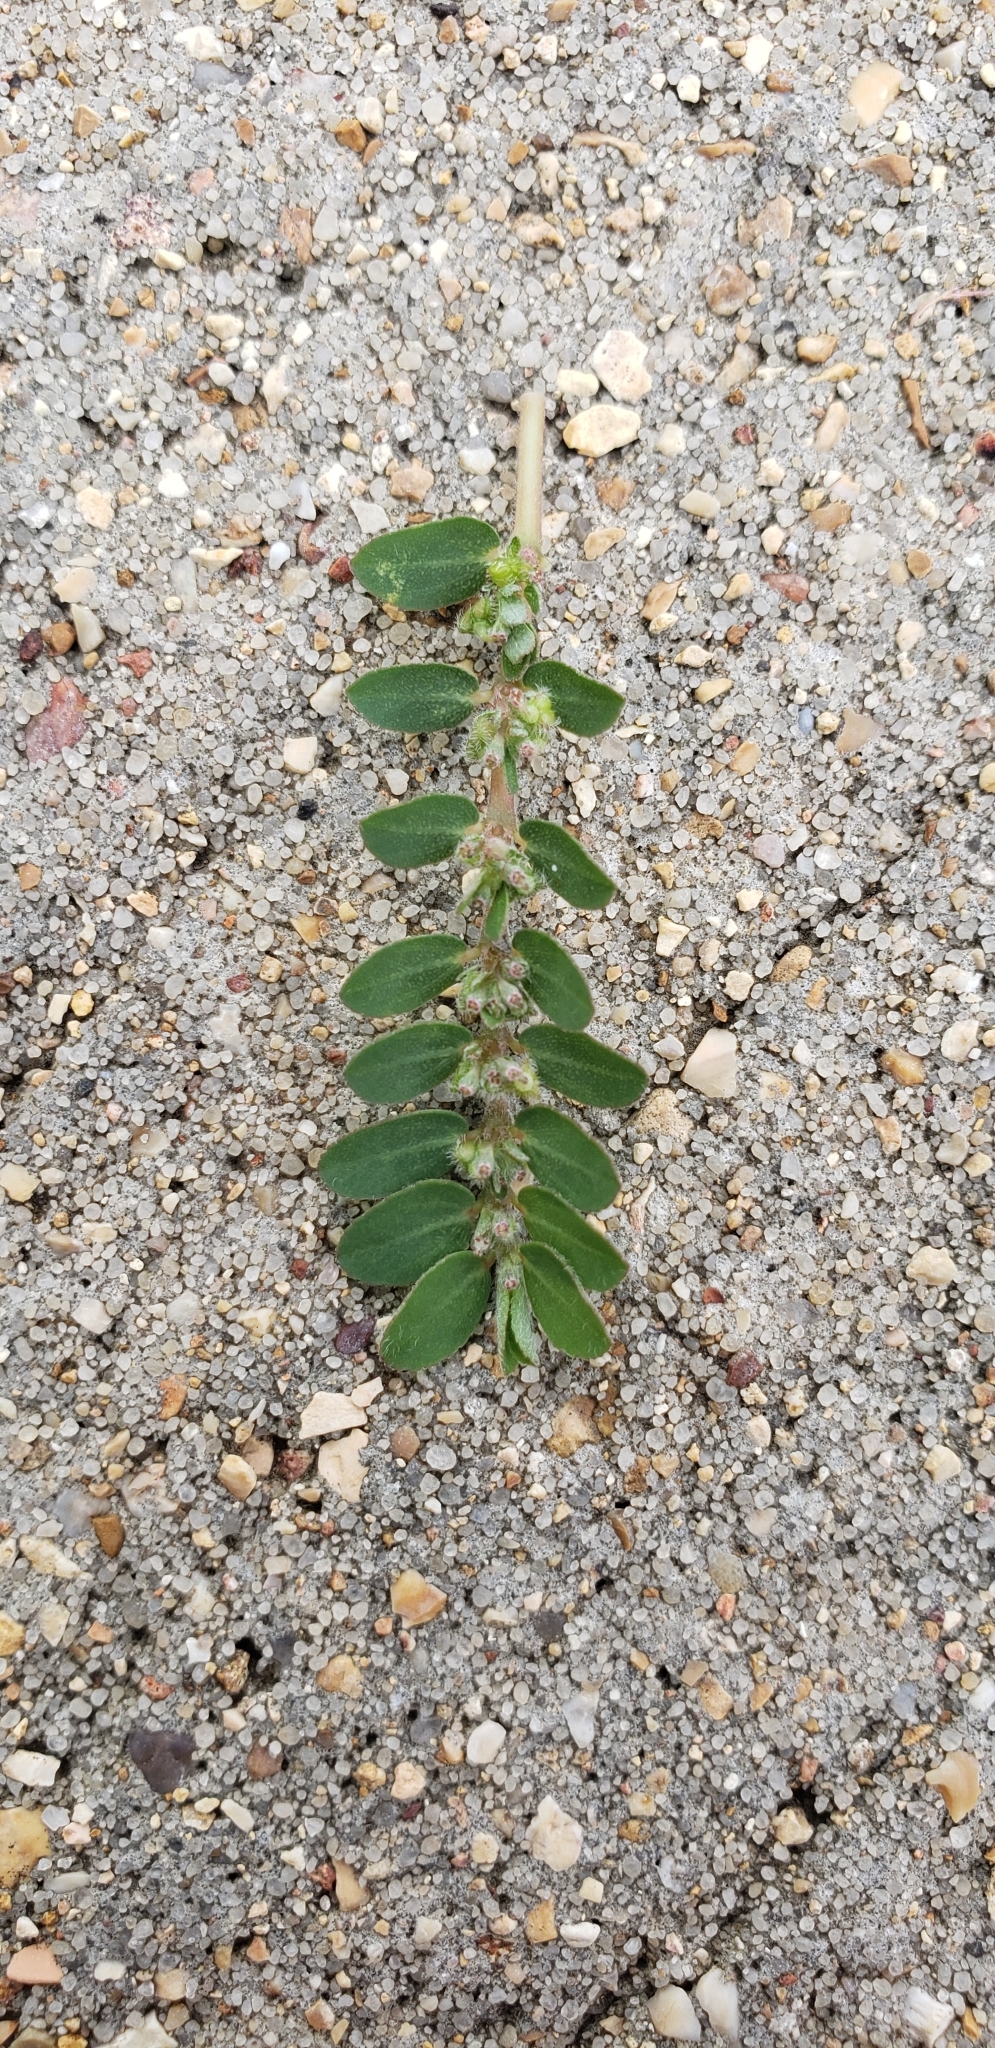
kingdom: Plantae
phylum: Tracheophyta
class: Magnoliopsida
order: Malpighiales
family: Euphorbiaceae
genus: Euphorbia
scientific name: Euphorbia prostrata
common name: Prostrate sandmat
